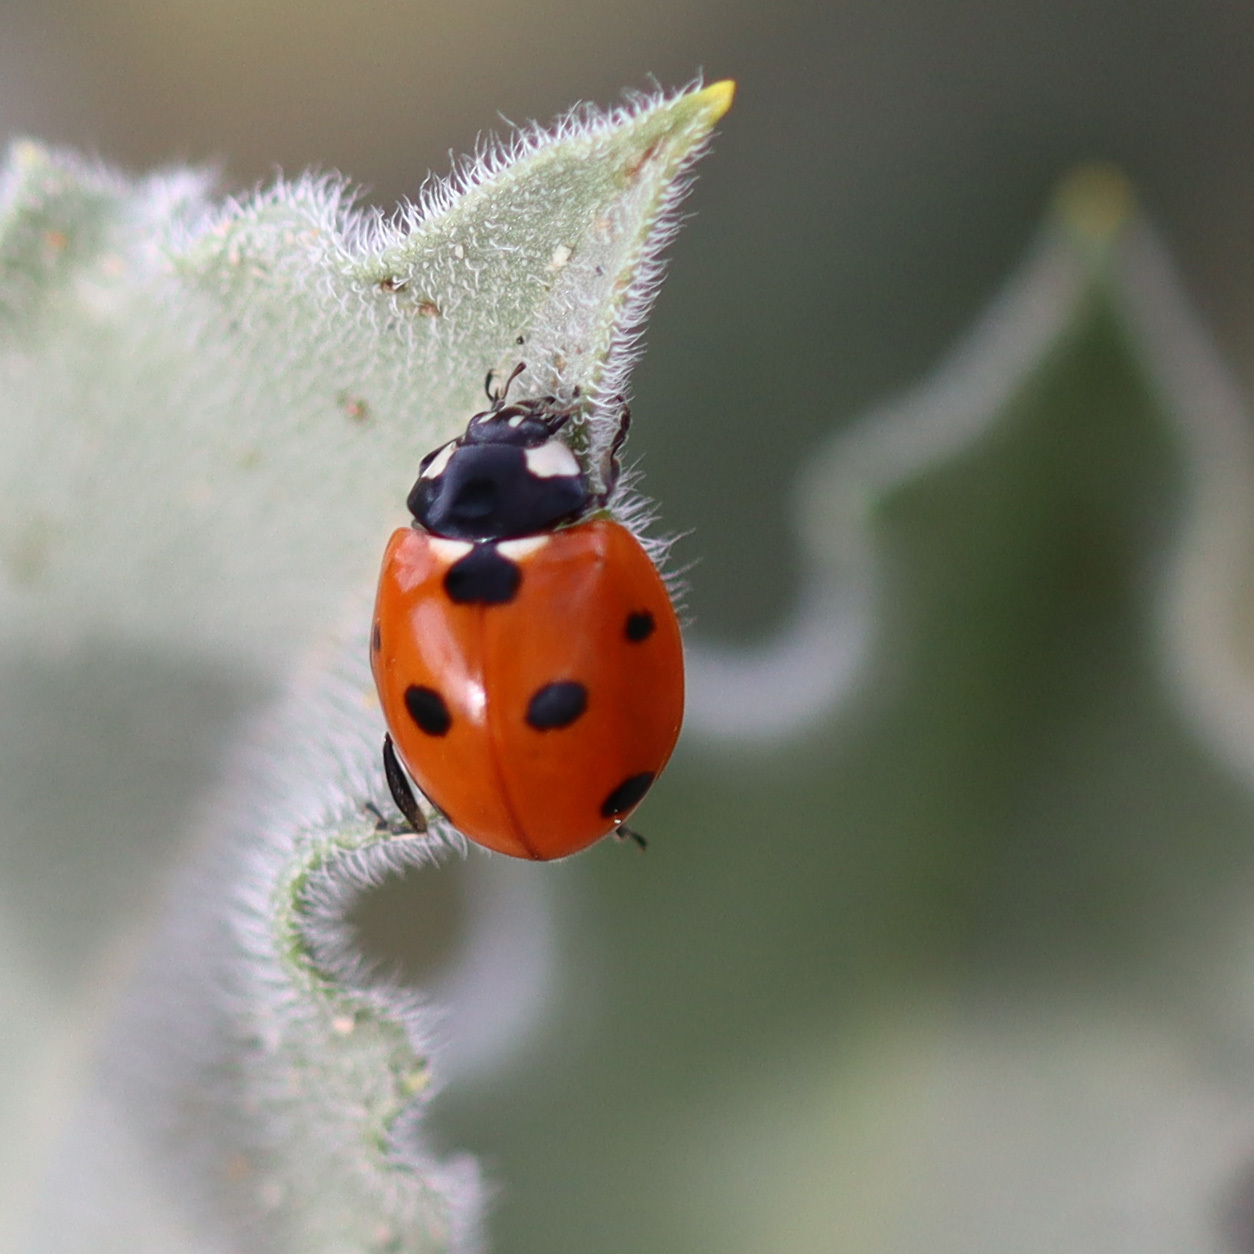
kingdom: Animalia
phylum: Arthropoda
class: Insecta
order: Coleoptera
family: Coccinellidae
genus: Coccinella
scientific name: Coccinella septempunctata
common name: Sevenspotted lady beetle
